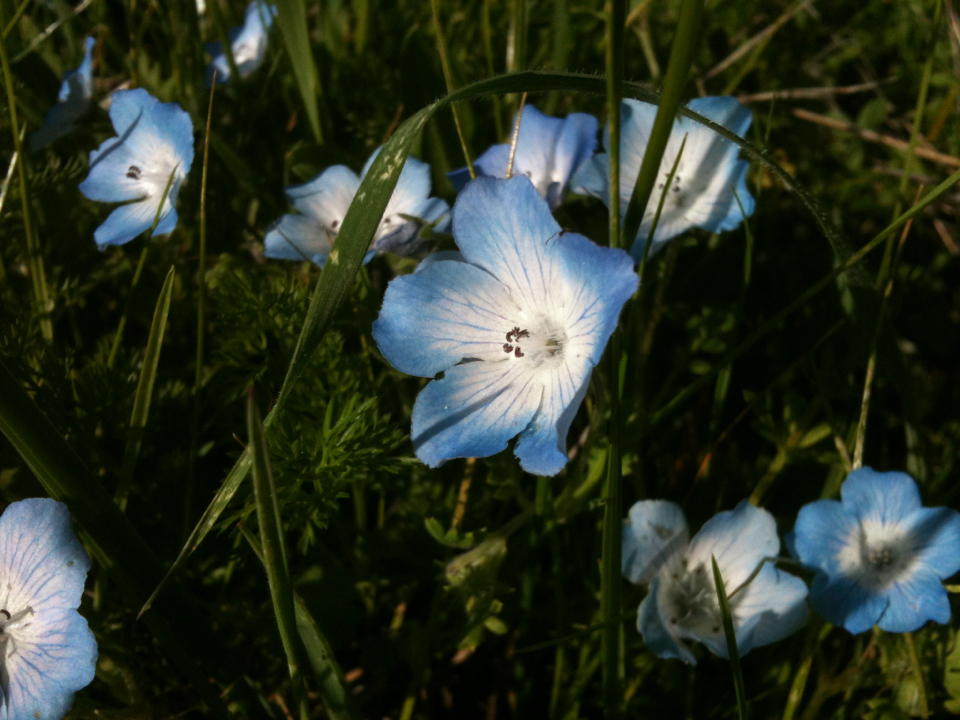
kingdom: Plantae
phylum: Tracheophyta
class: Magnoliopsida
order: Boraginales
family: Hydrophyllaceae
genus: Nemophila
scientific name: Nemophila menziesii
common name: Baby's-blue-eyes
